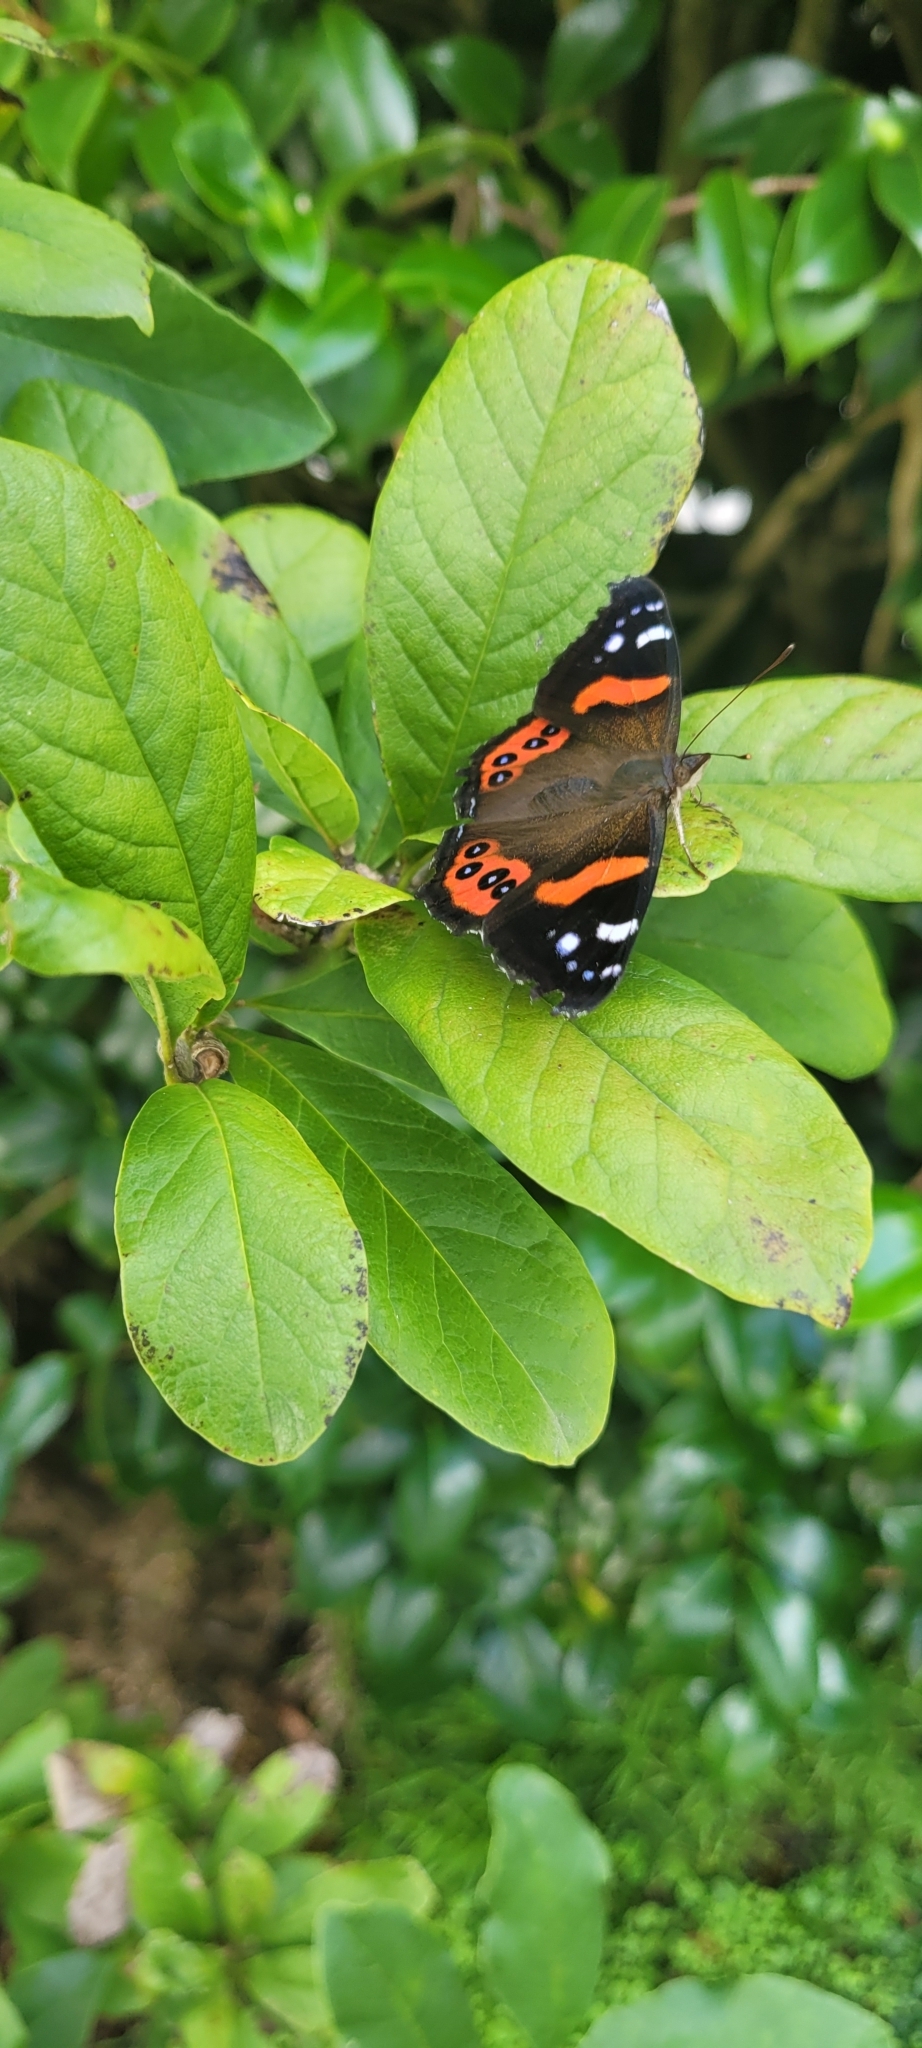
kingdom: Animalia
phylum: Arthropoda
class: Insecta
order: Lepidoptera
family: Nymphalidae
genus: Vanessa
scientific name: Vanessa gonerilla
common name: New zealand red admiral
